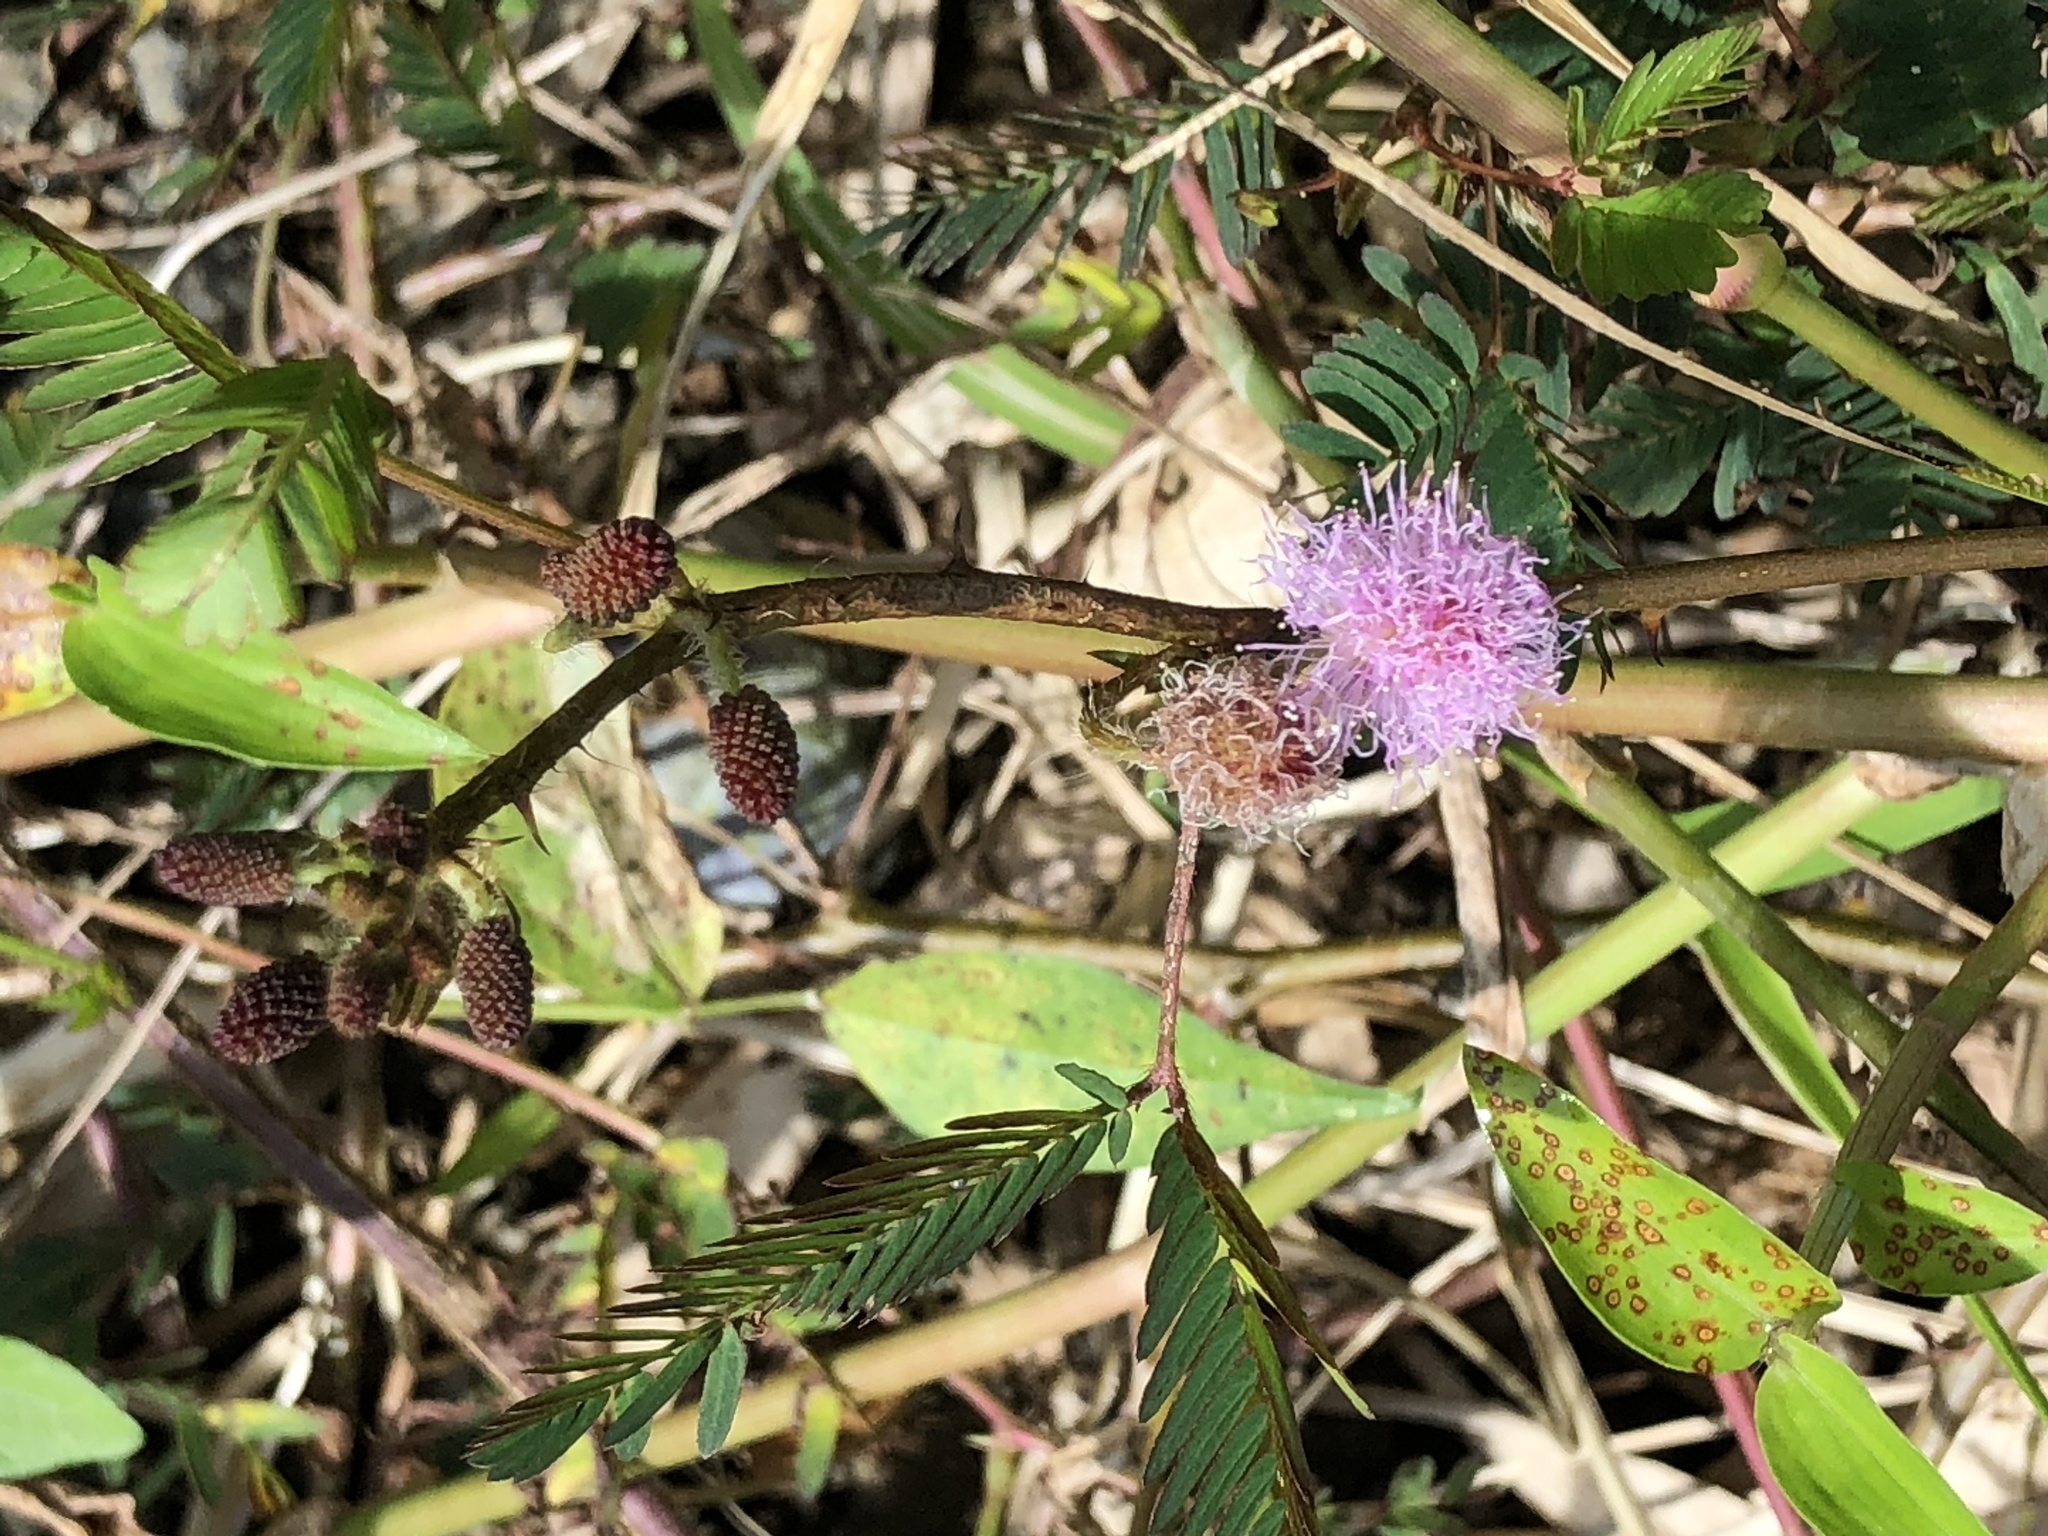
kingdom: Plantae
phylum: Tracheophyta
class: Magnoliopsida
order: Fabales
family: Fabaceae
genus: Mimosa
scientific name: Mimosa pudica
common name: Sensitive plant
